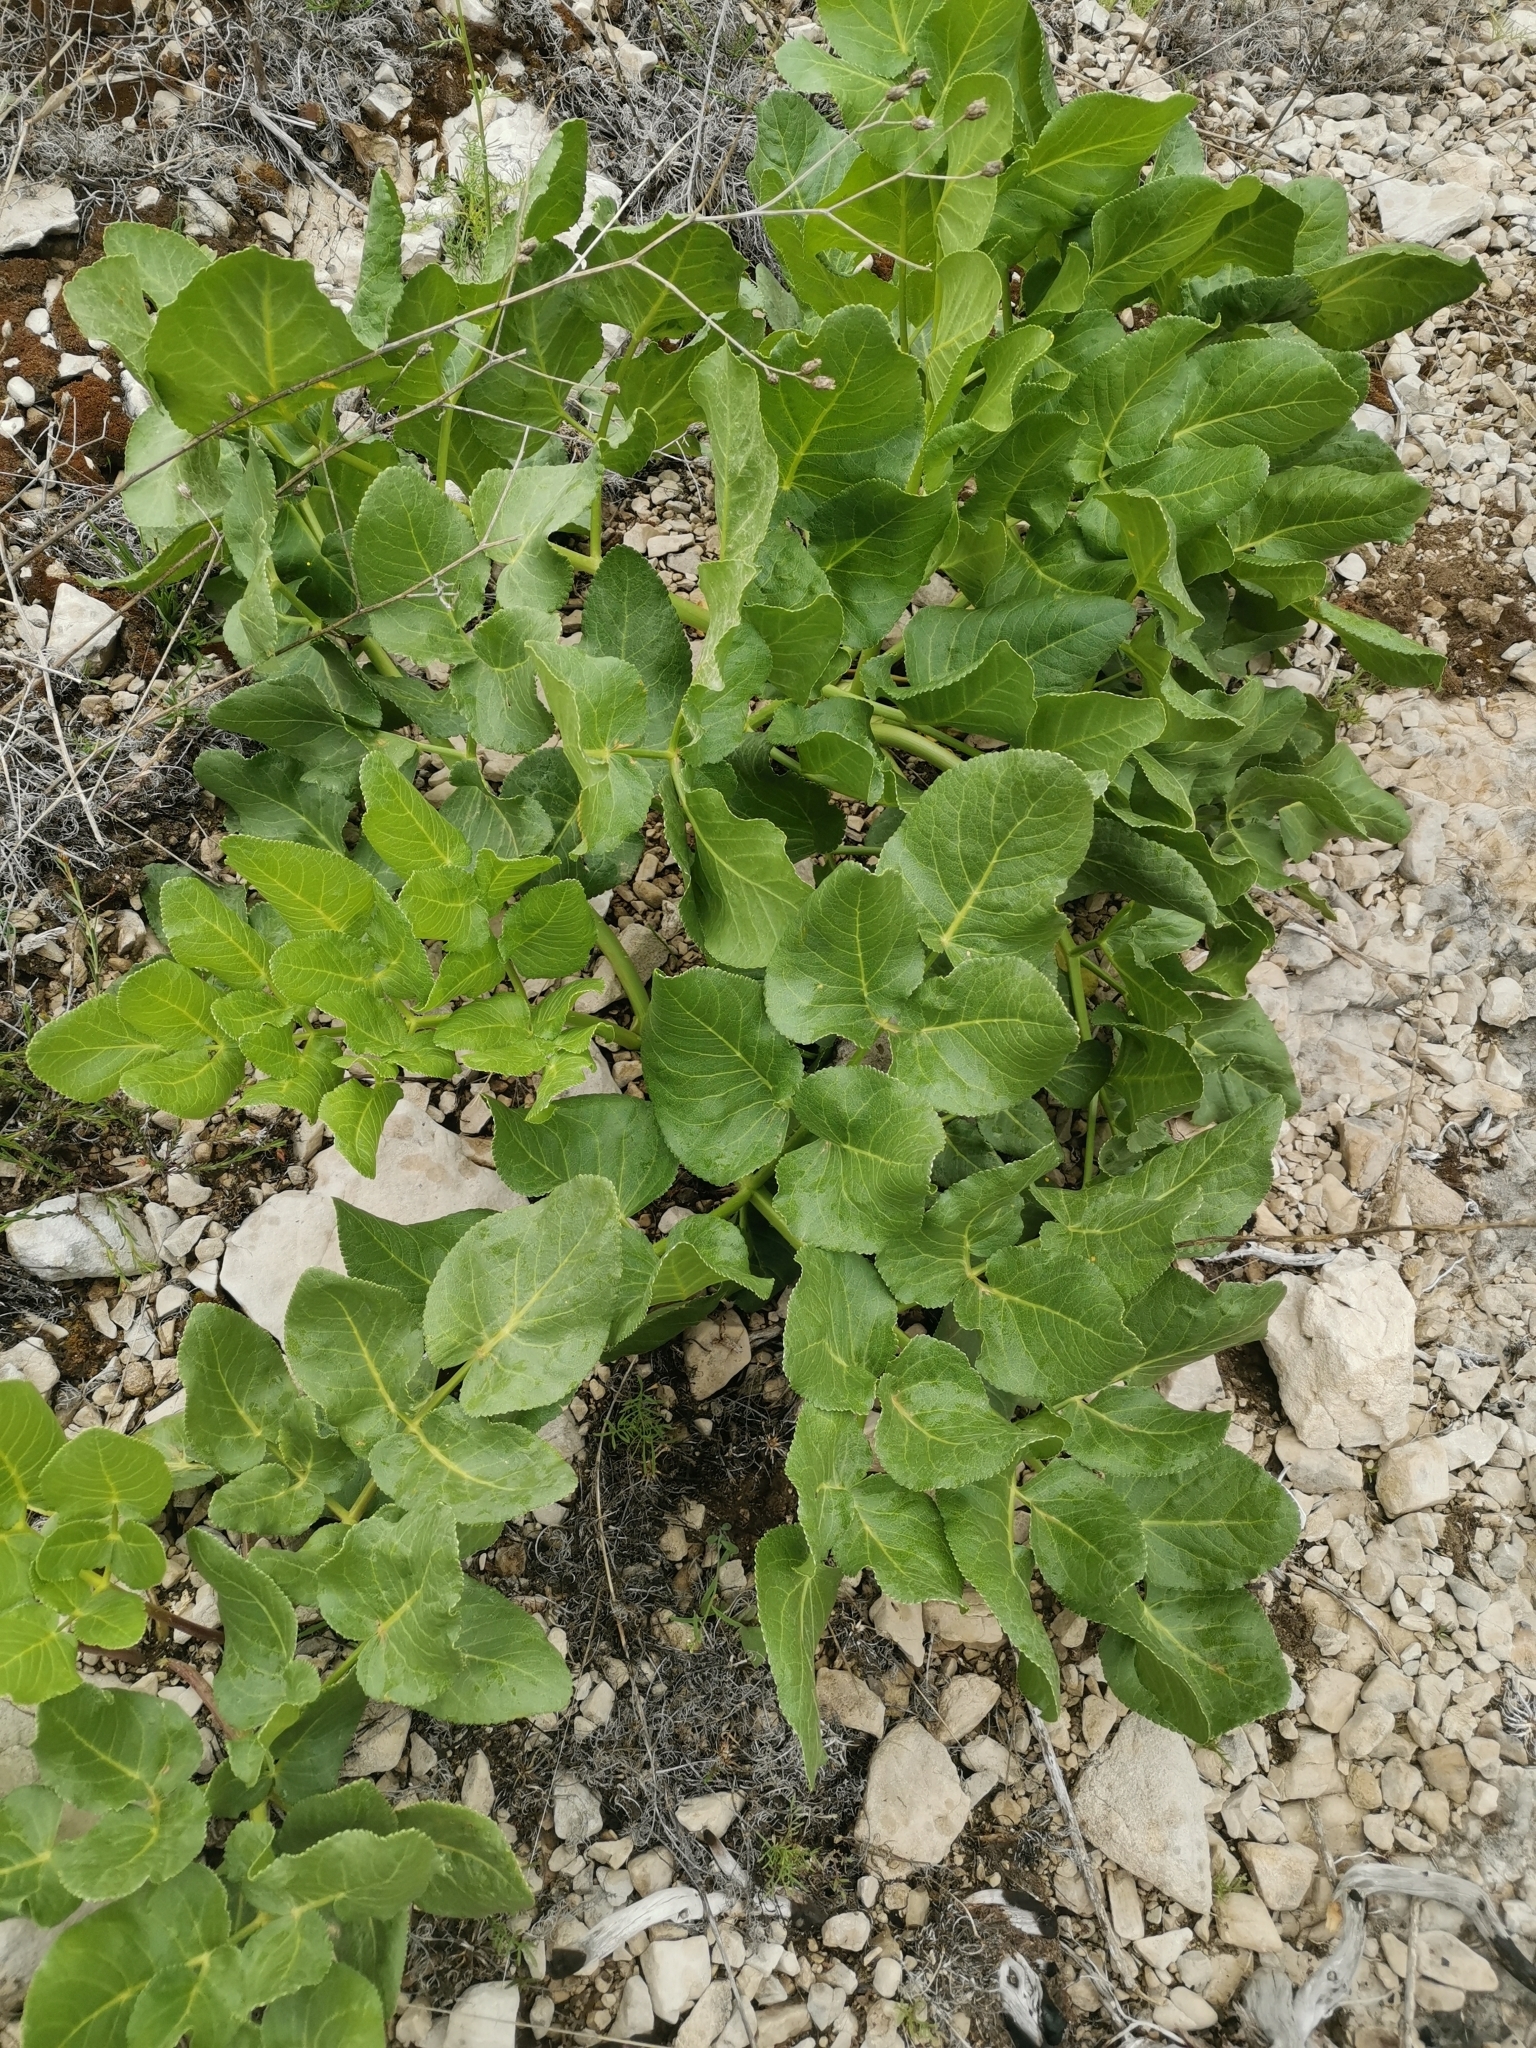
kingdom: Plantae
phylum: Tracheophyta
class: Magnoliopsida
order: Apiales
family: Apiaceae
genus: Opopanax
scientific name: Opopanax chironium
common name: Hercules-all-heal
